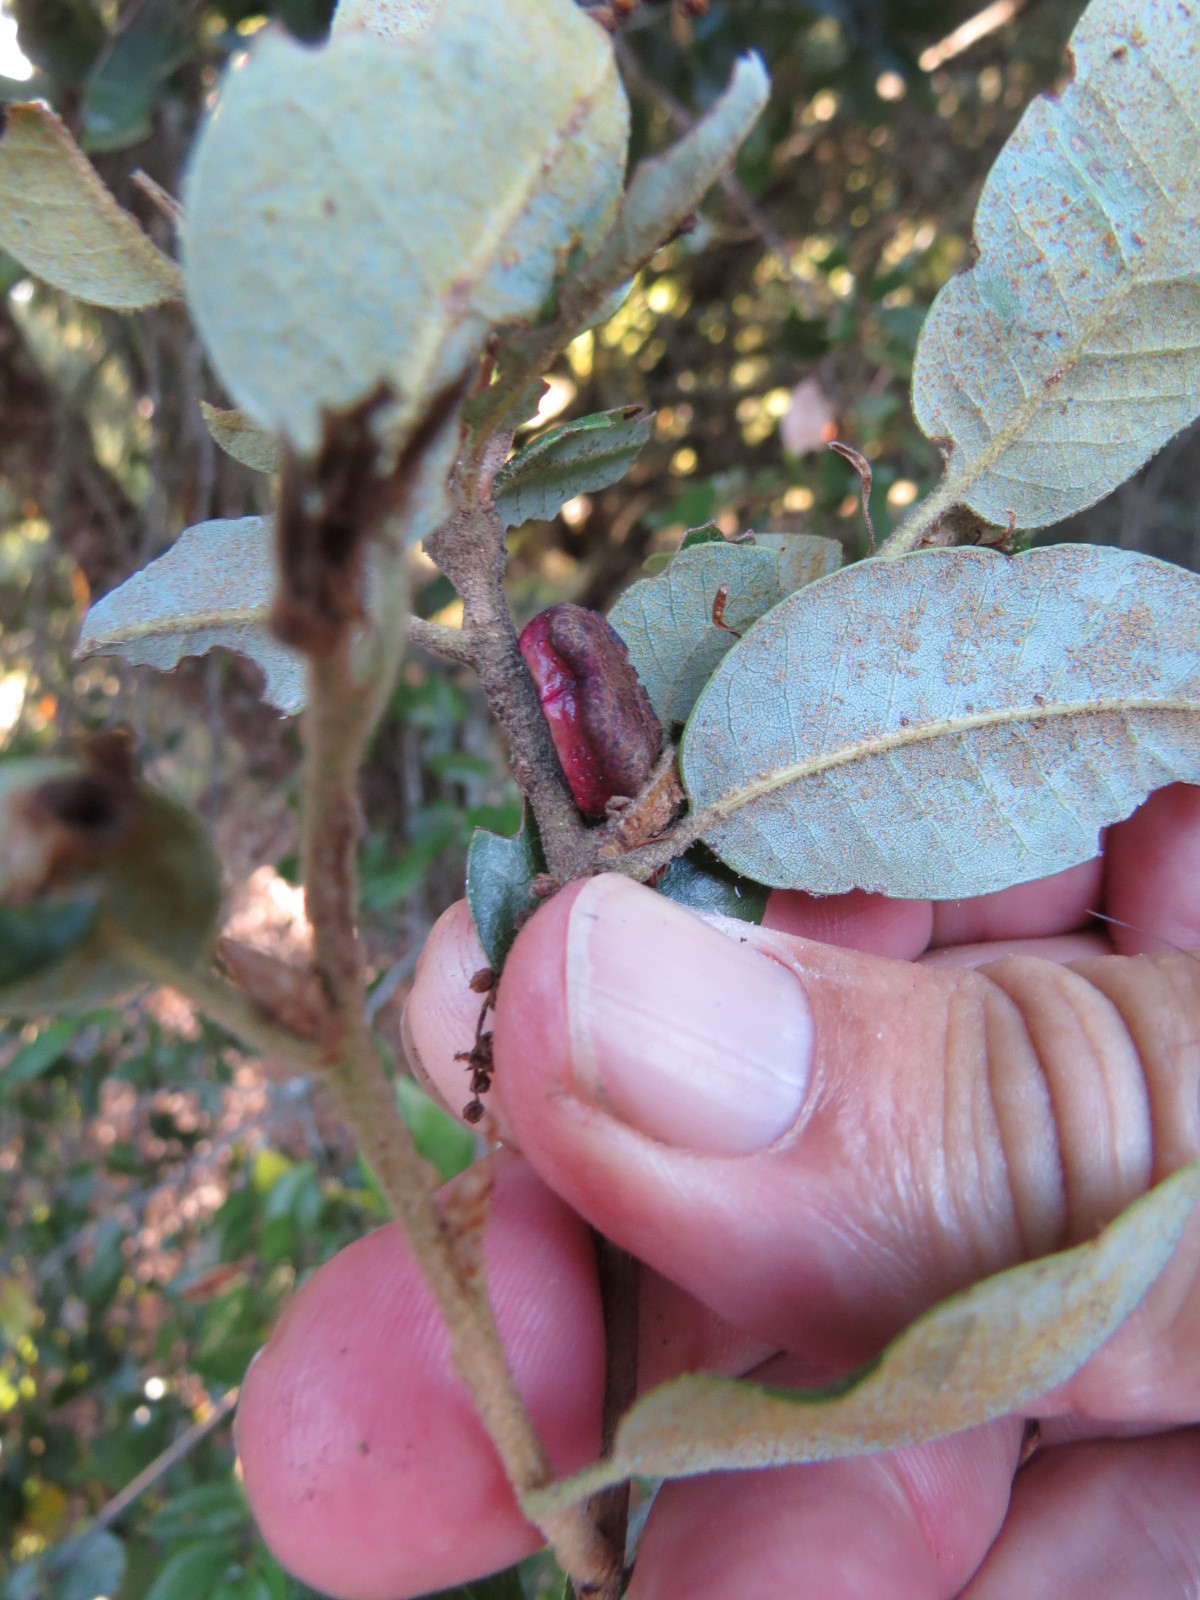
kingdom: Animalia
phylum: Arthropoda
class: Insecta
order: Hymenoptera
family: Cynipidae
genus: Disholandricus
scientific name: Disholandricus
